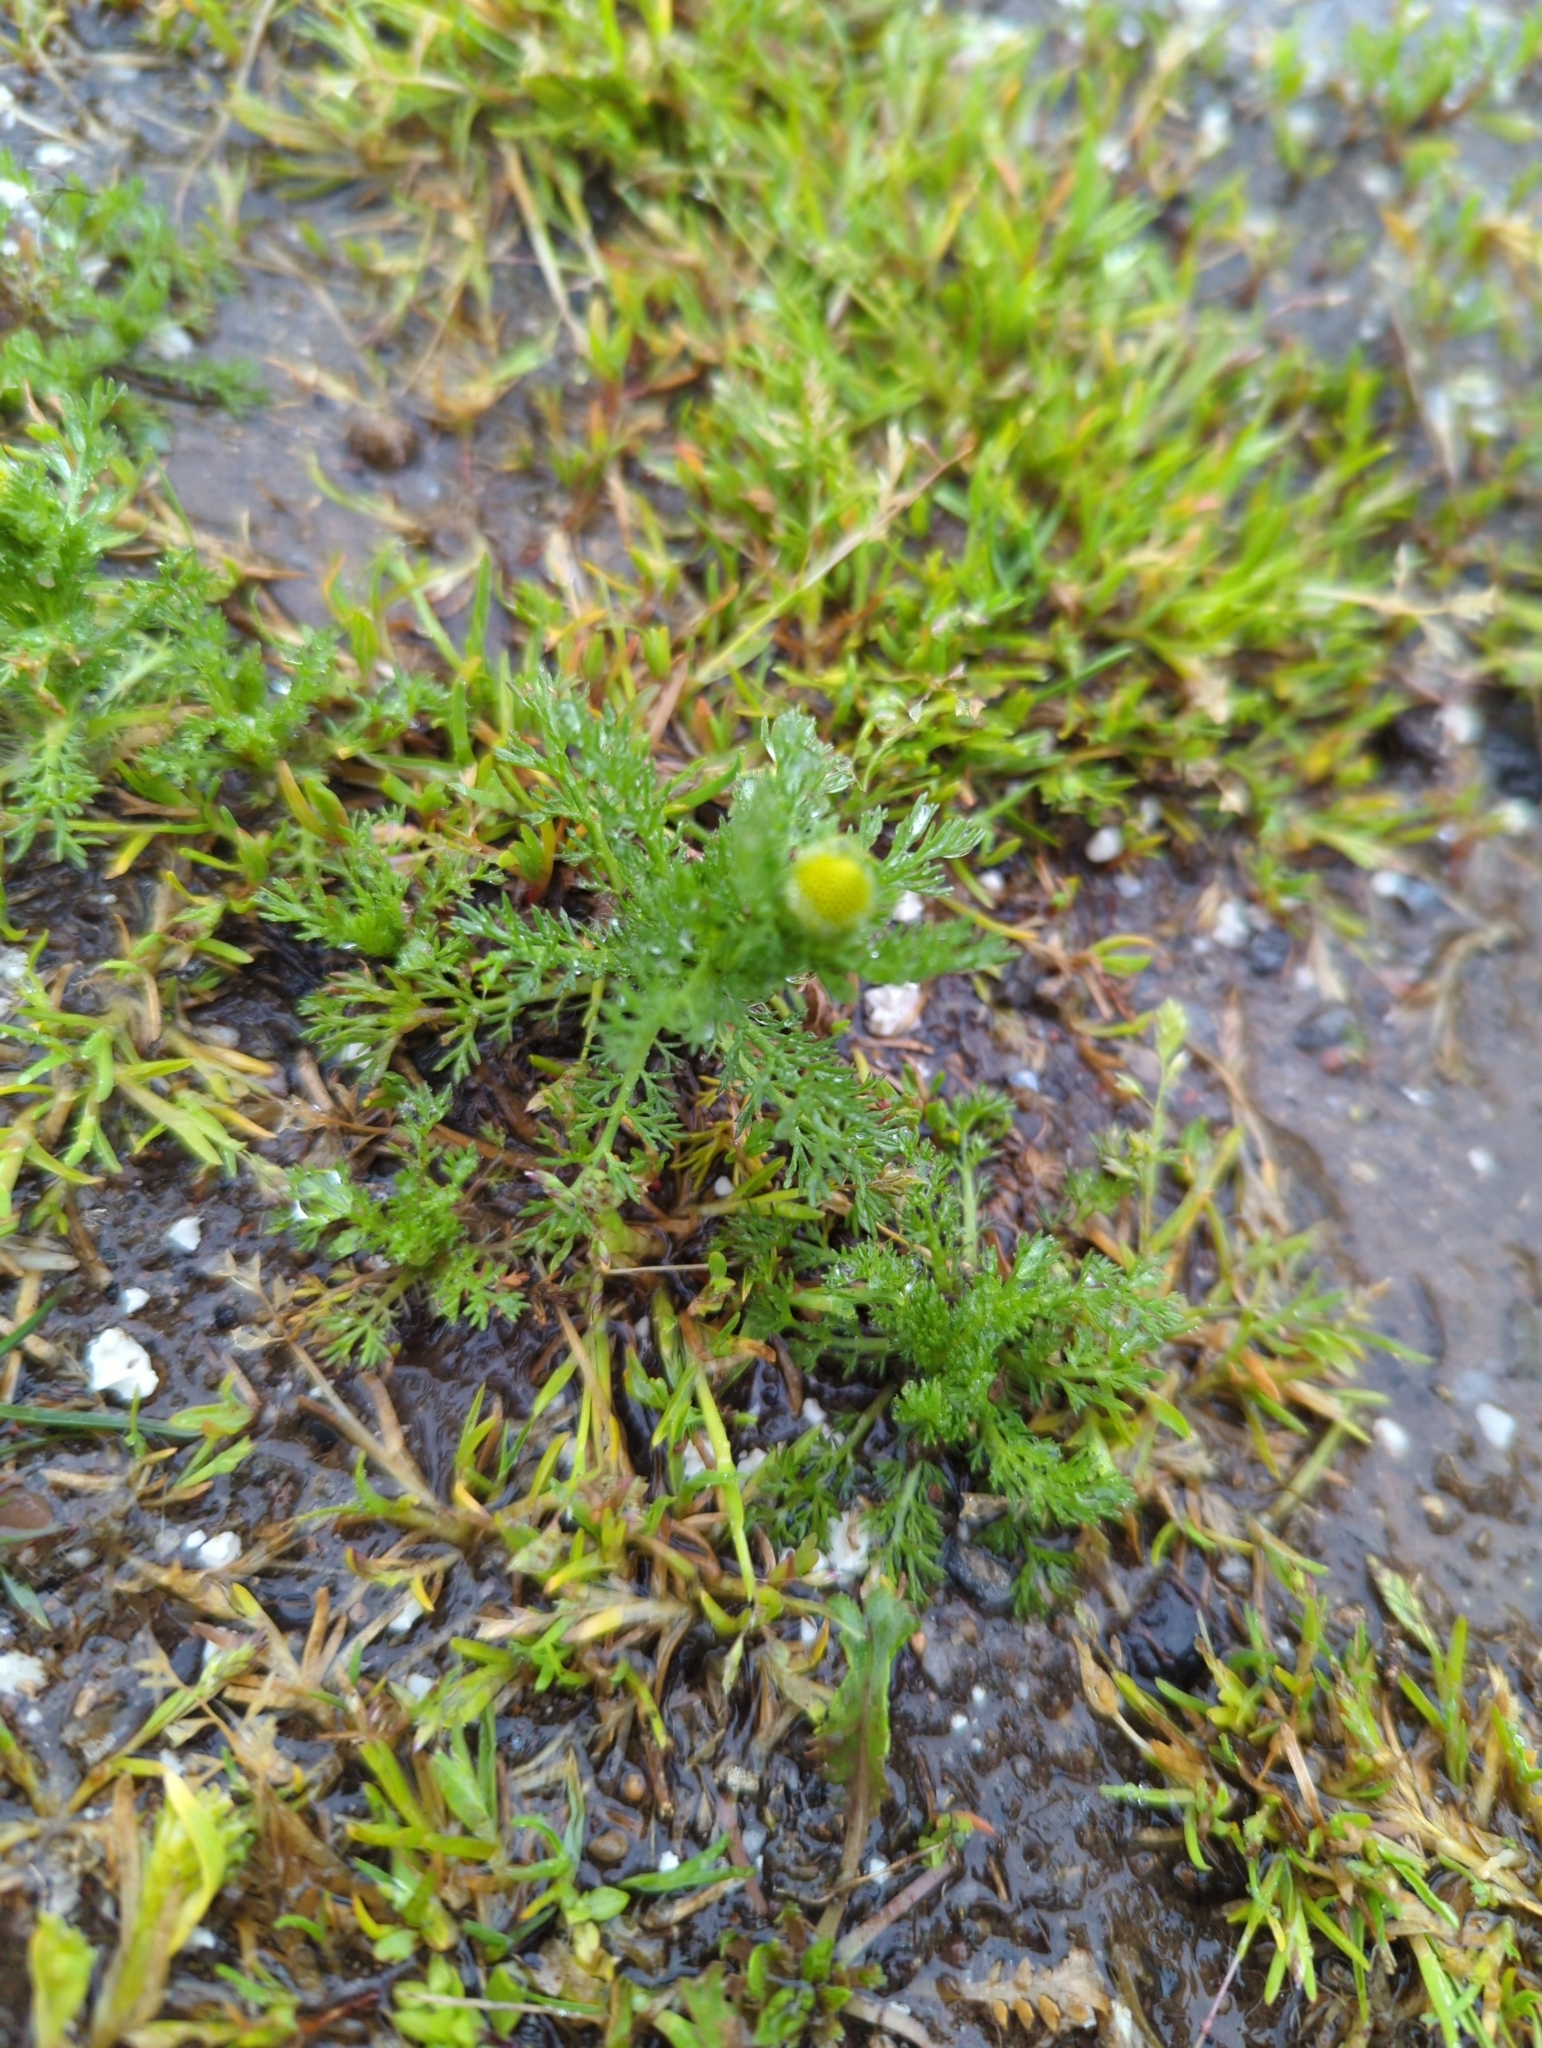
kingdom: Plantae
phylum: Tracheophyta
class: Magnoliopsida
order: Asterales
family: Asteraceae
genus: Matricaria
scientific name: Matricaria discoidea
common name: Disc mayweed
